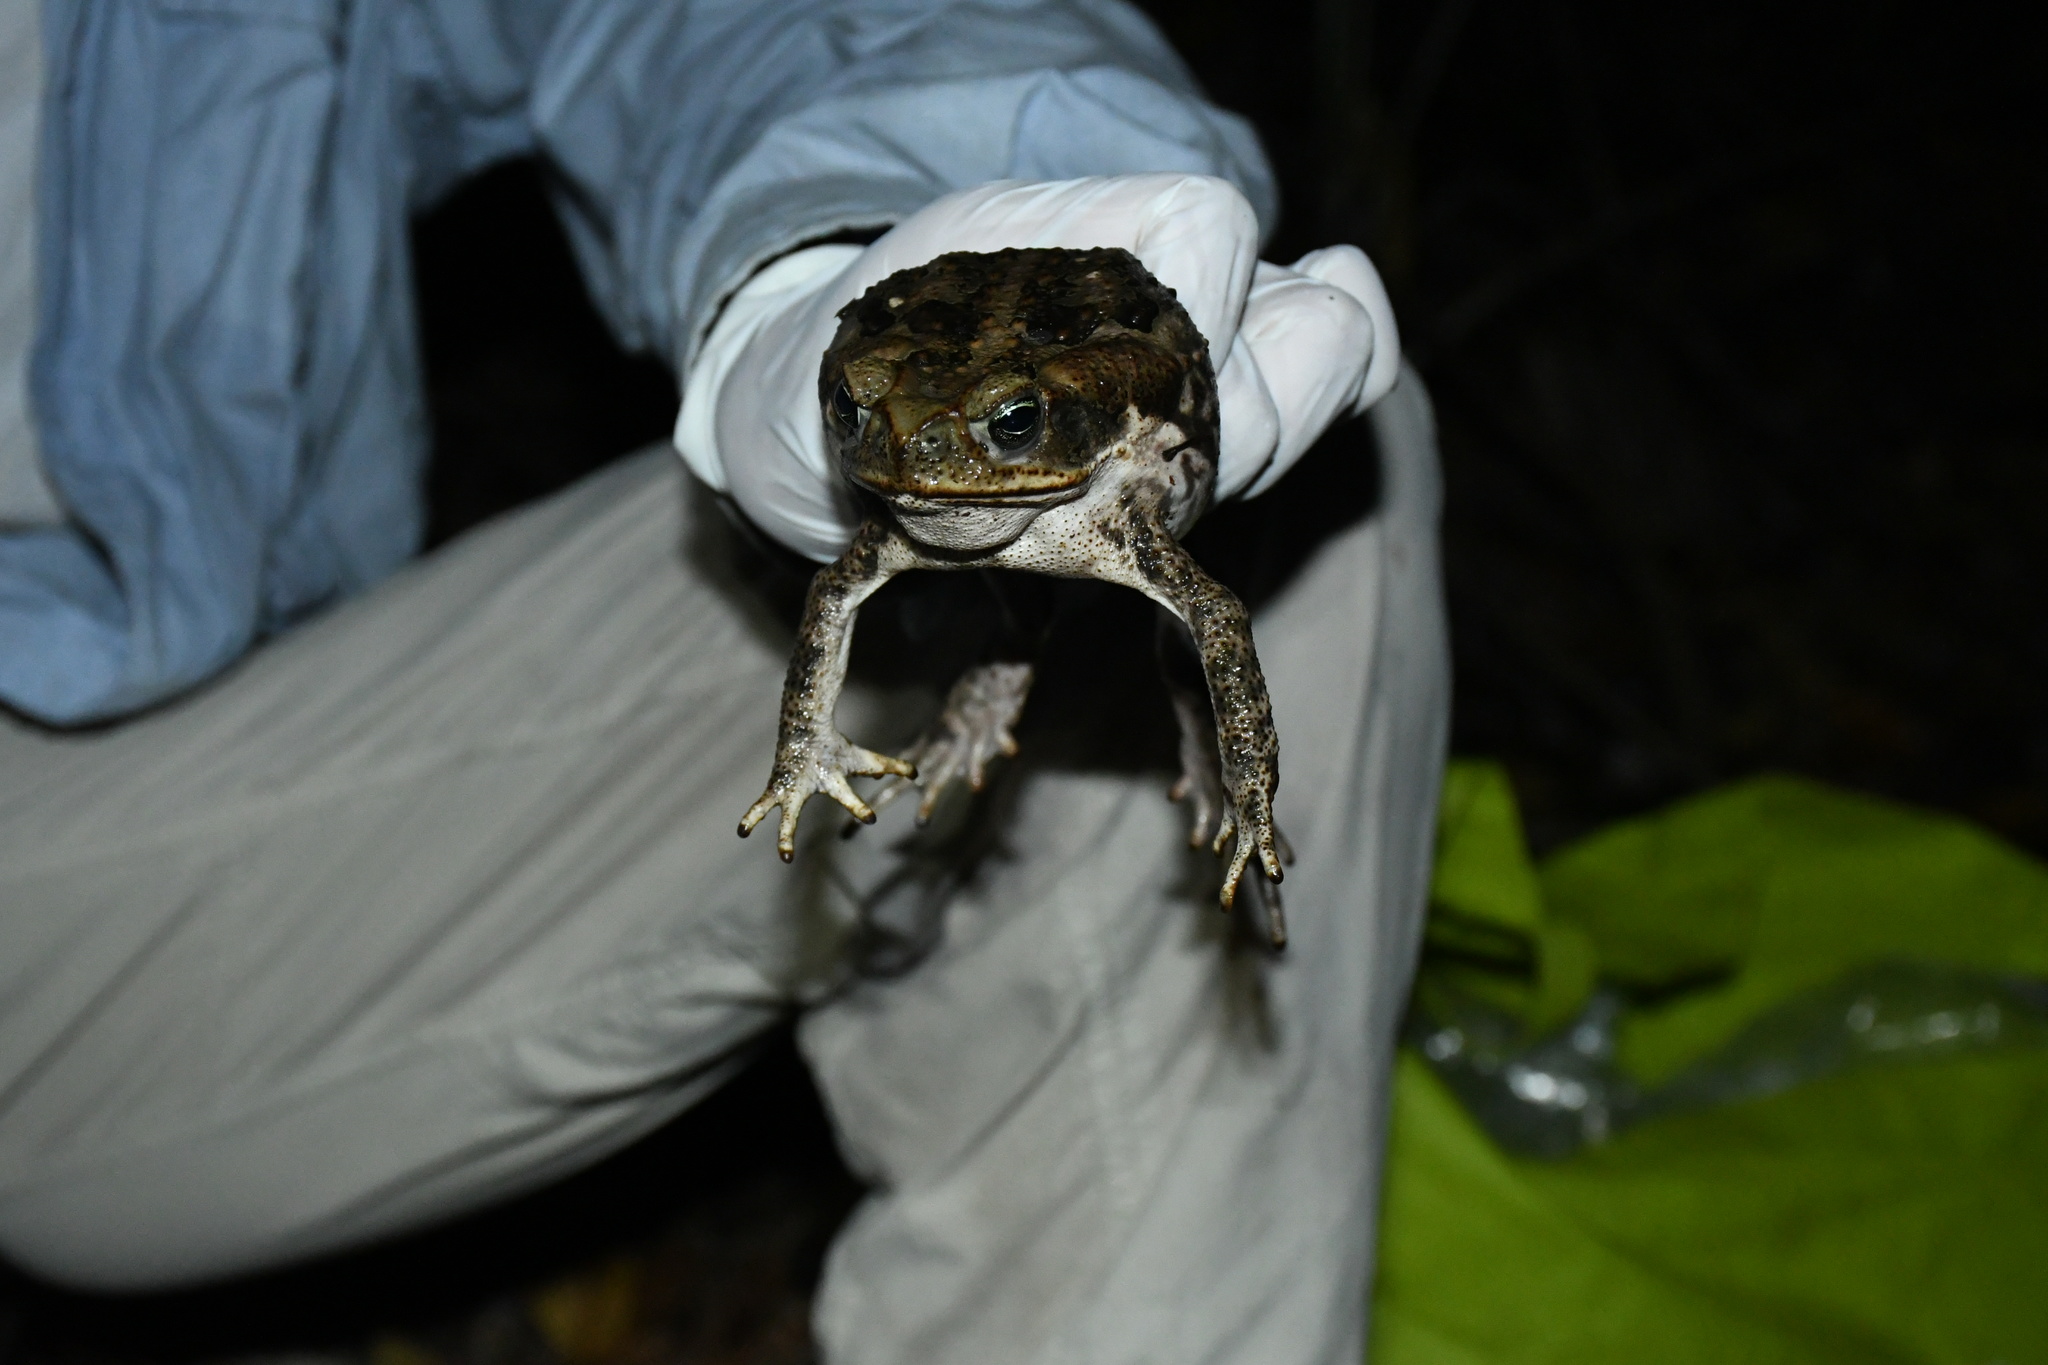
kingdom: Animalia
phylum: Chordata
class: Amphibia
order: Anura
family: Bufonidae
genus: Rhinella
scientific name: Rhinella horribilis
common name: Mesoamerican cane toad
